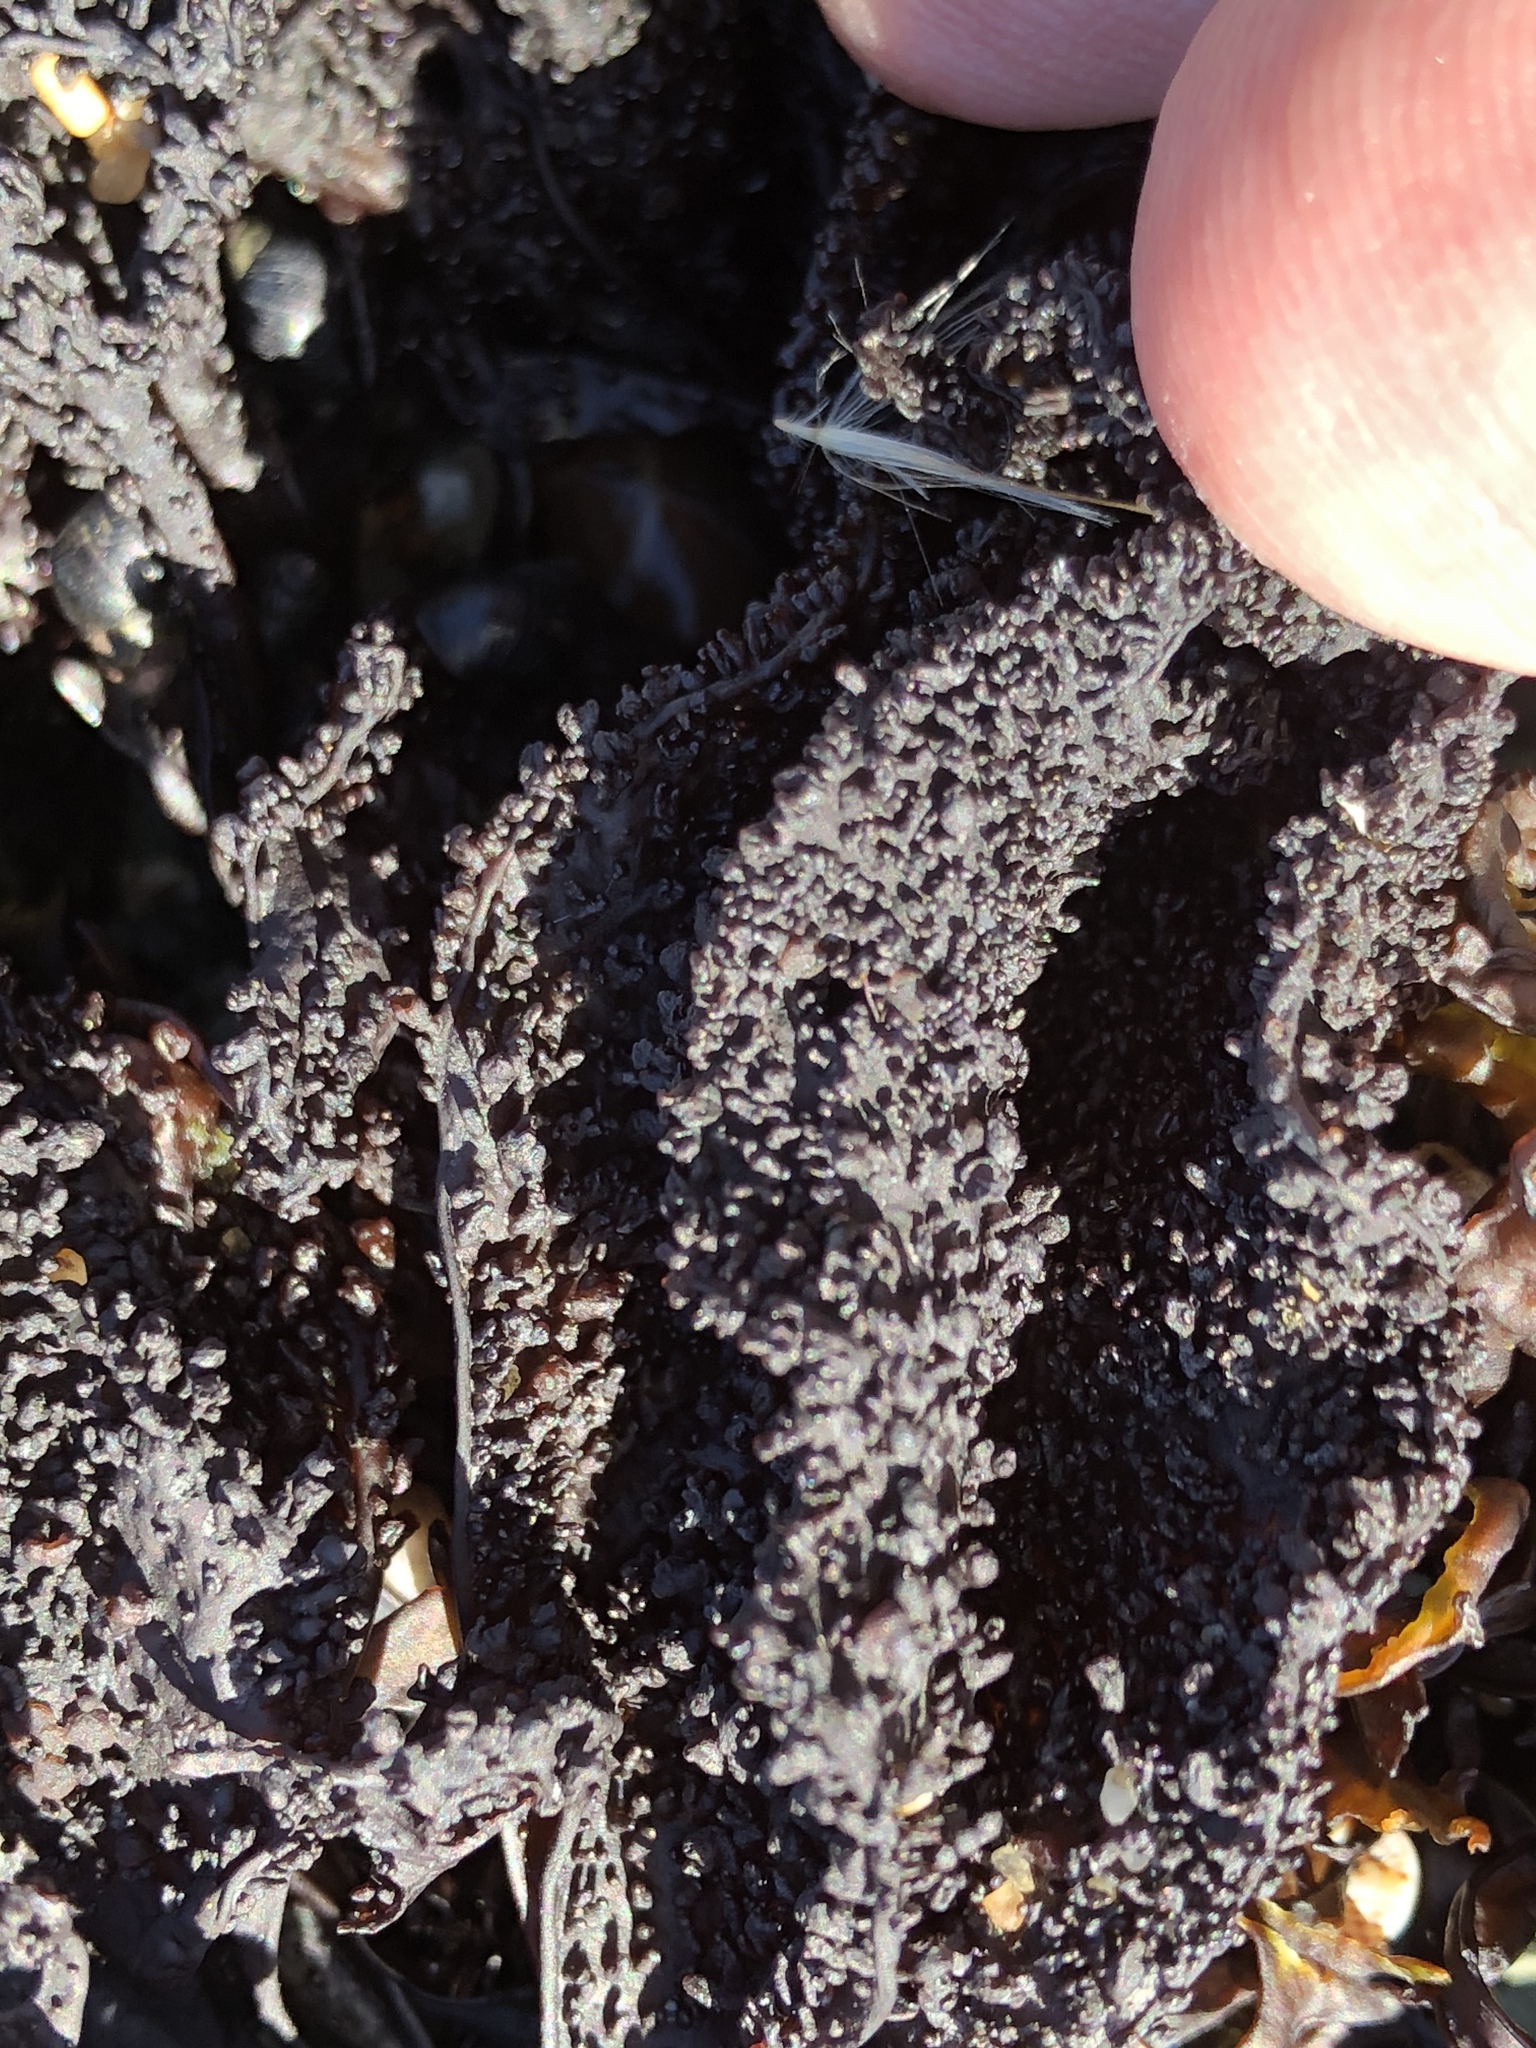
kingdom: Plantae
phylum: Rhodophyta
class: Florideophyceae
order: Gigartinales
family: Phyllophoraceae
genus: Mastocarpus
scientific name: Mastocarpus papillatus
